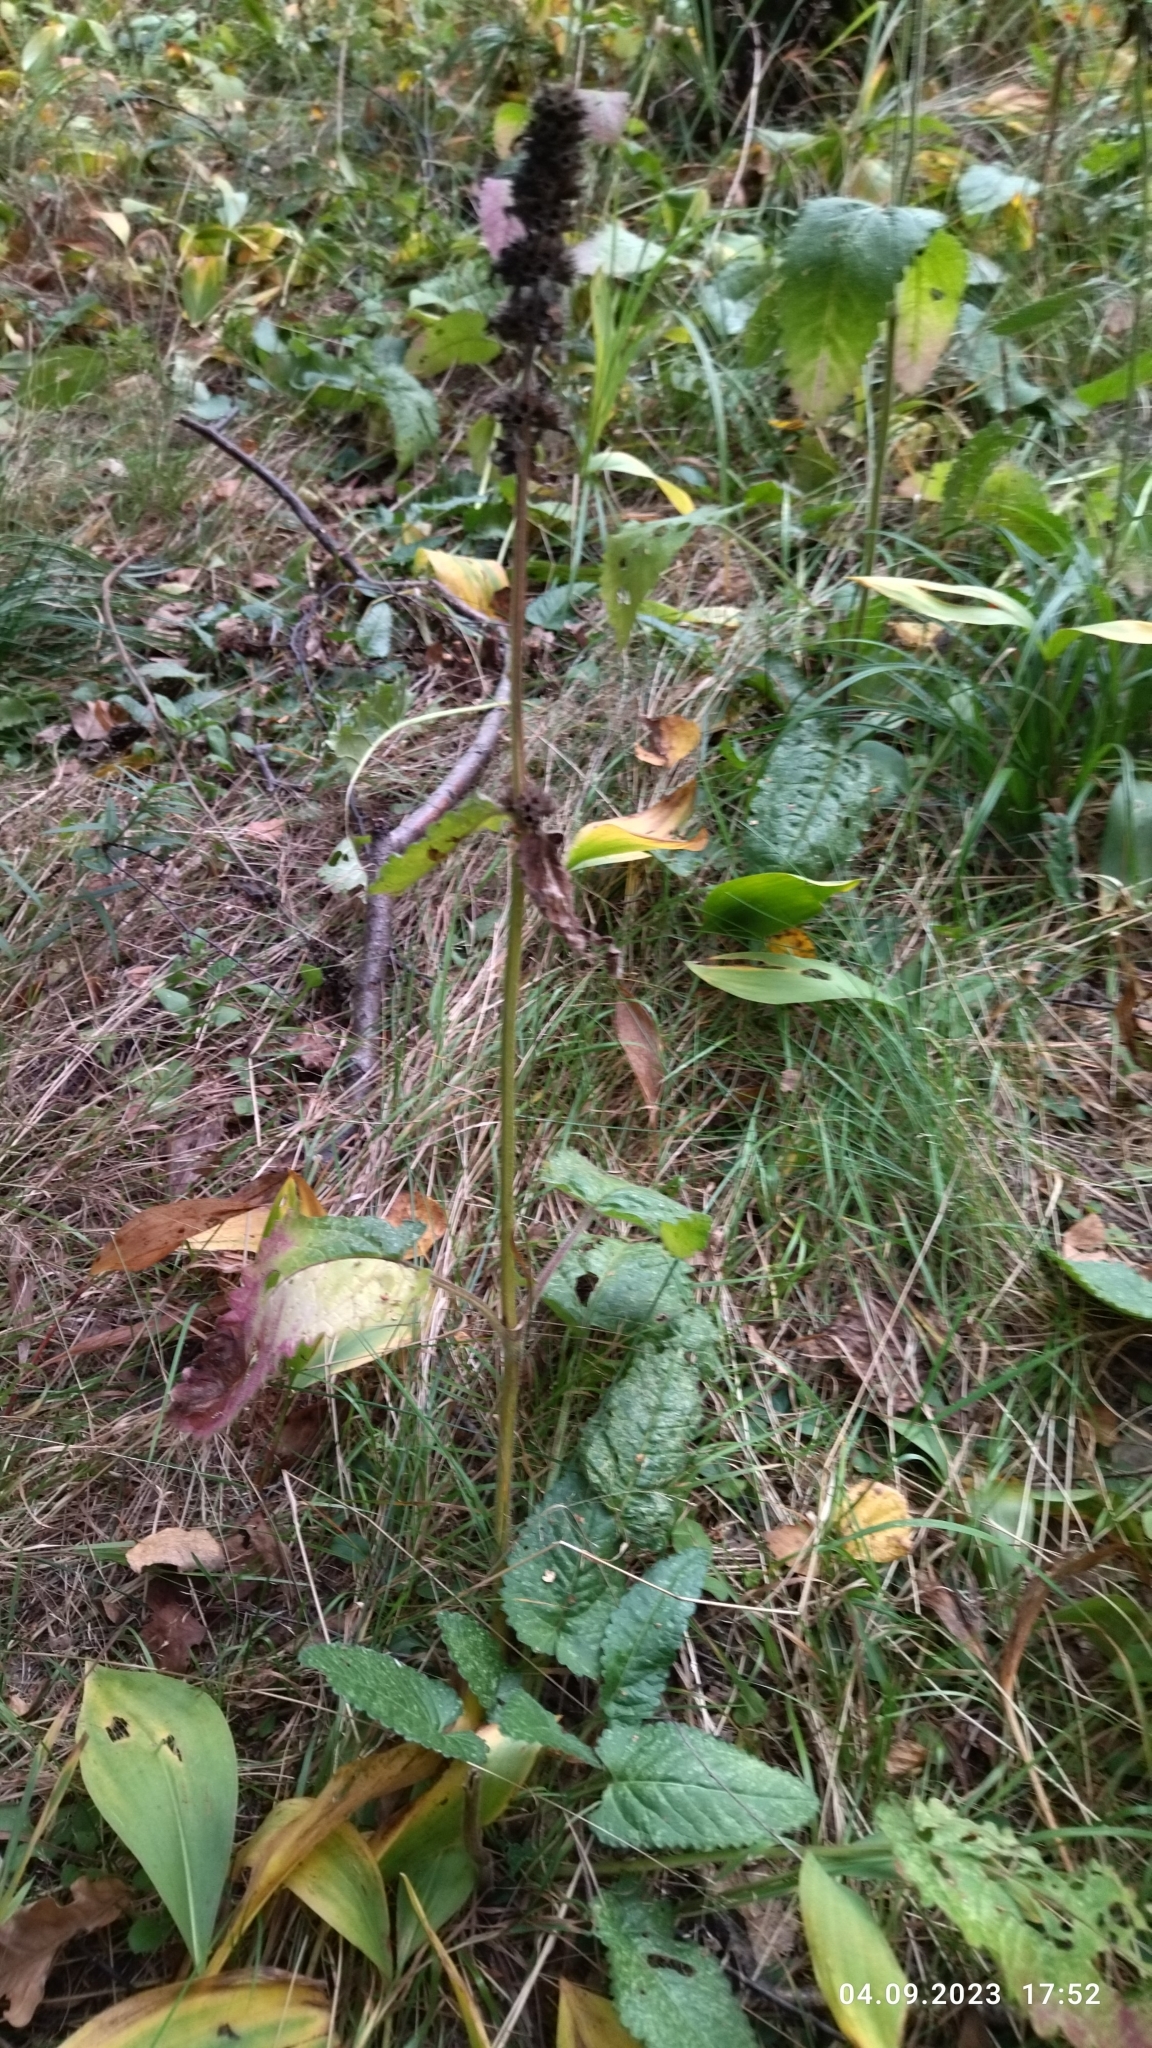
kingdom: Plantae
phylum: Tracheophyta
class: Magnoliopsida
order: Lamiales
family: Lamiaceae
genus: Betonica
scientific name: Betonica officinalis
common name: Bishop's-wort
